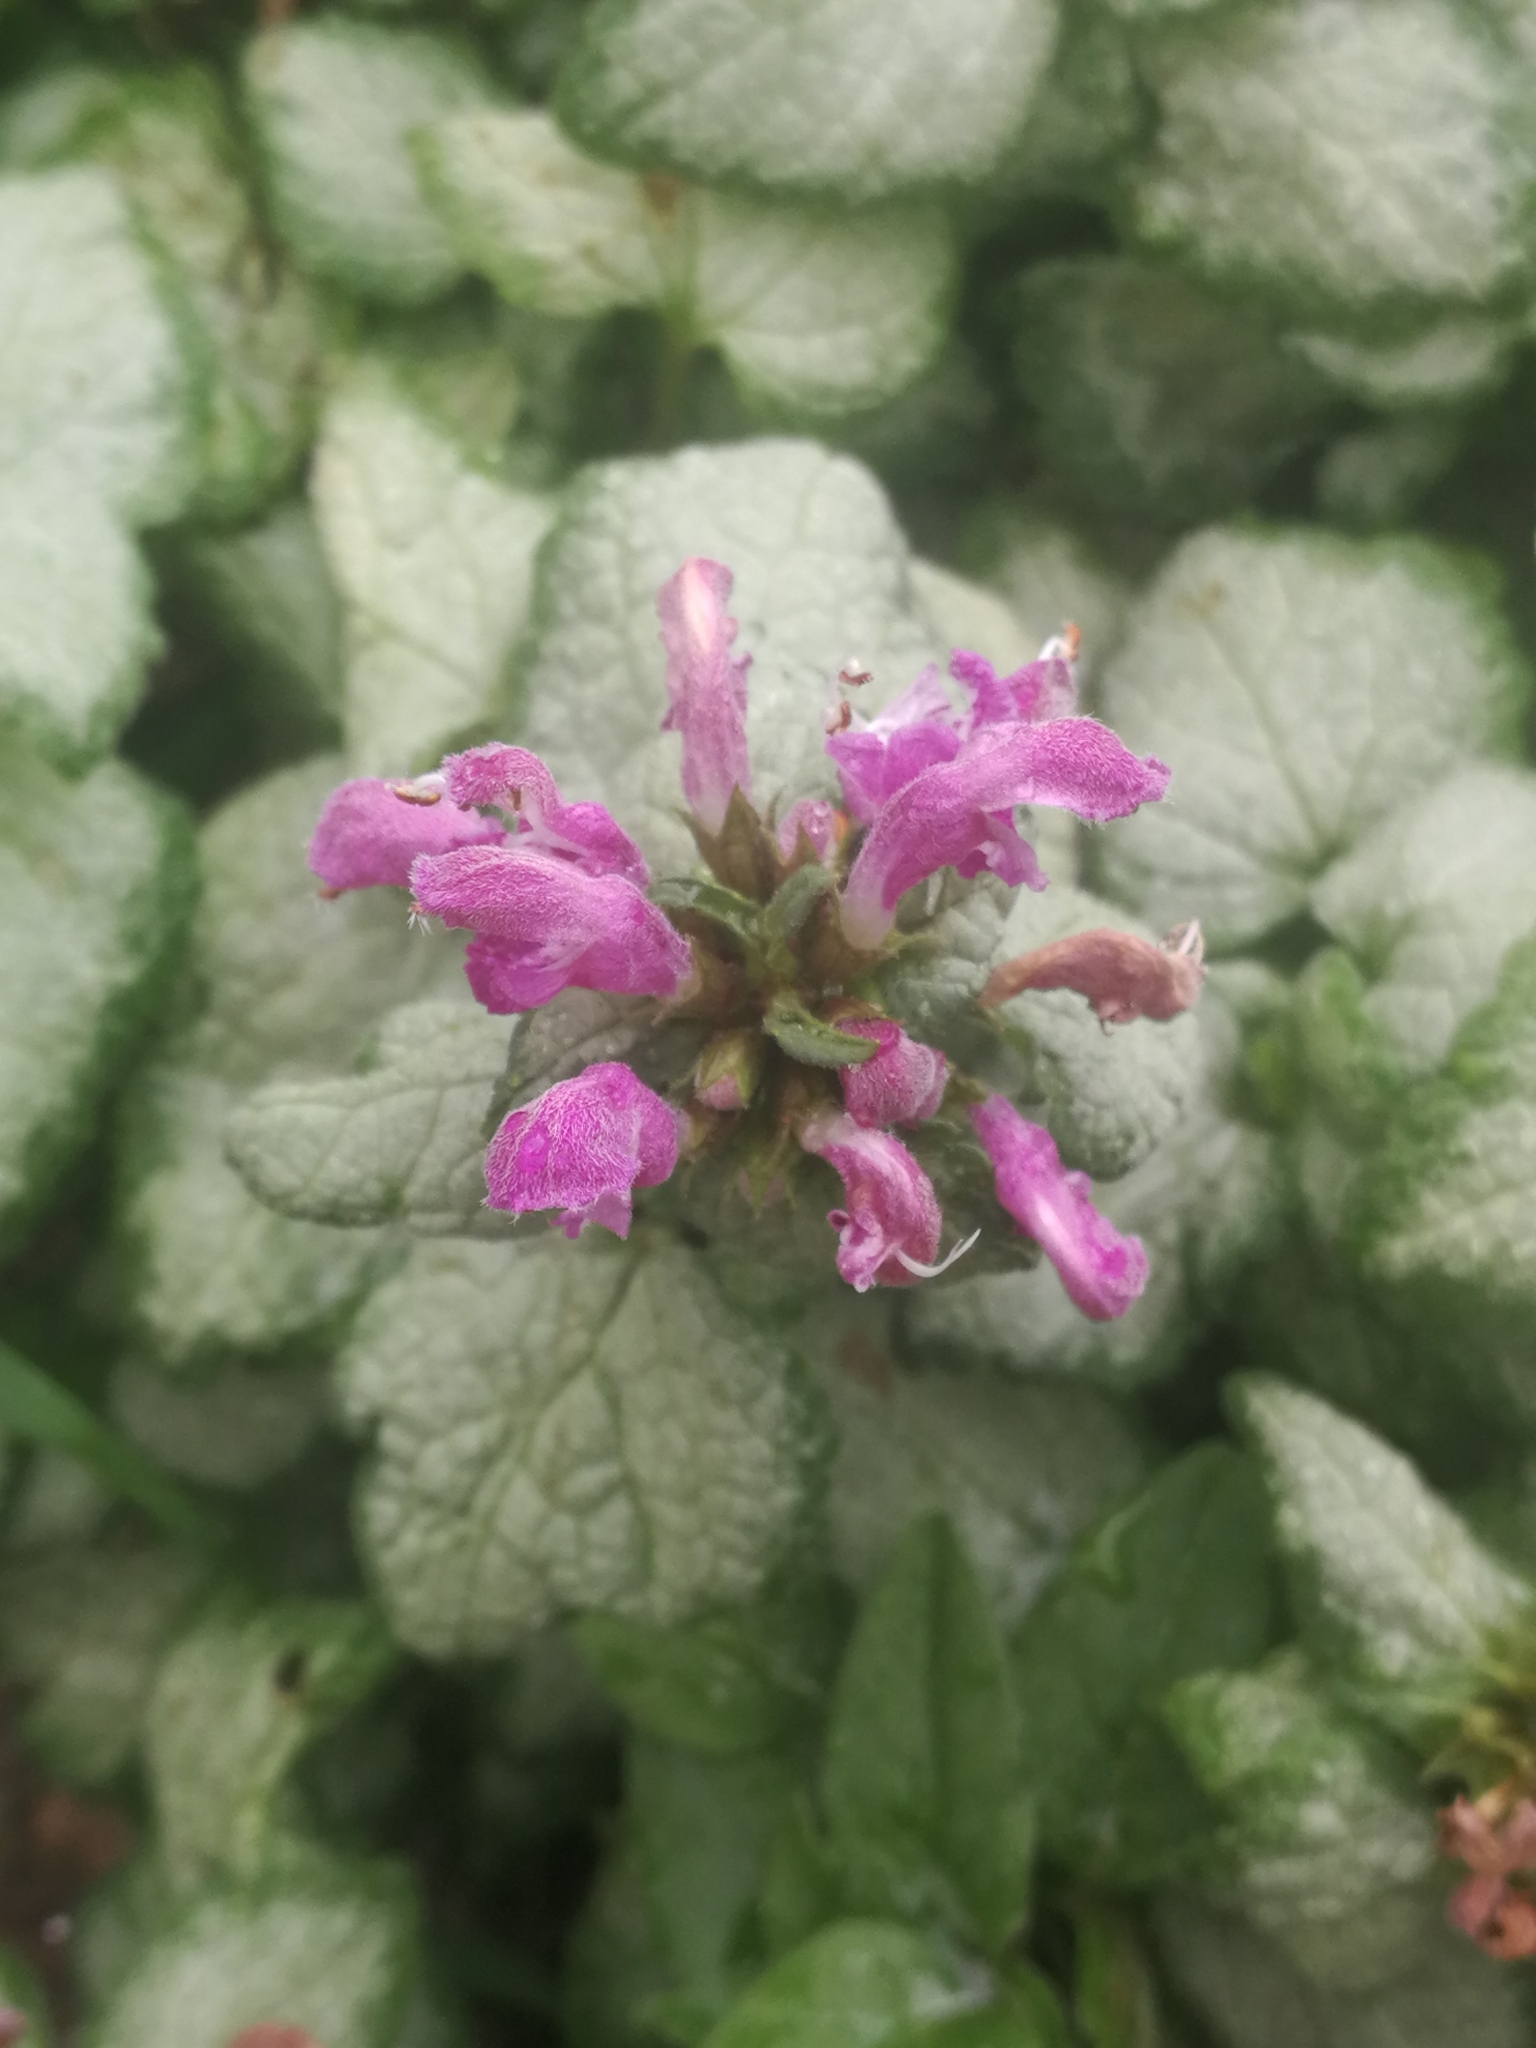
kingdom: Plantae
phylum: Tracheophyta
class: Magnoliopsida
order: Lamiales
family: Lamiaceae
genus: Lamium
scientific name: Lamium maculatum
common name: Spotted dead-nettle
